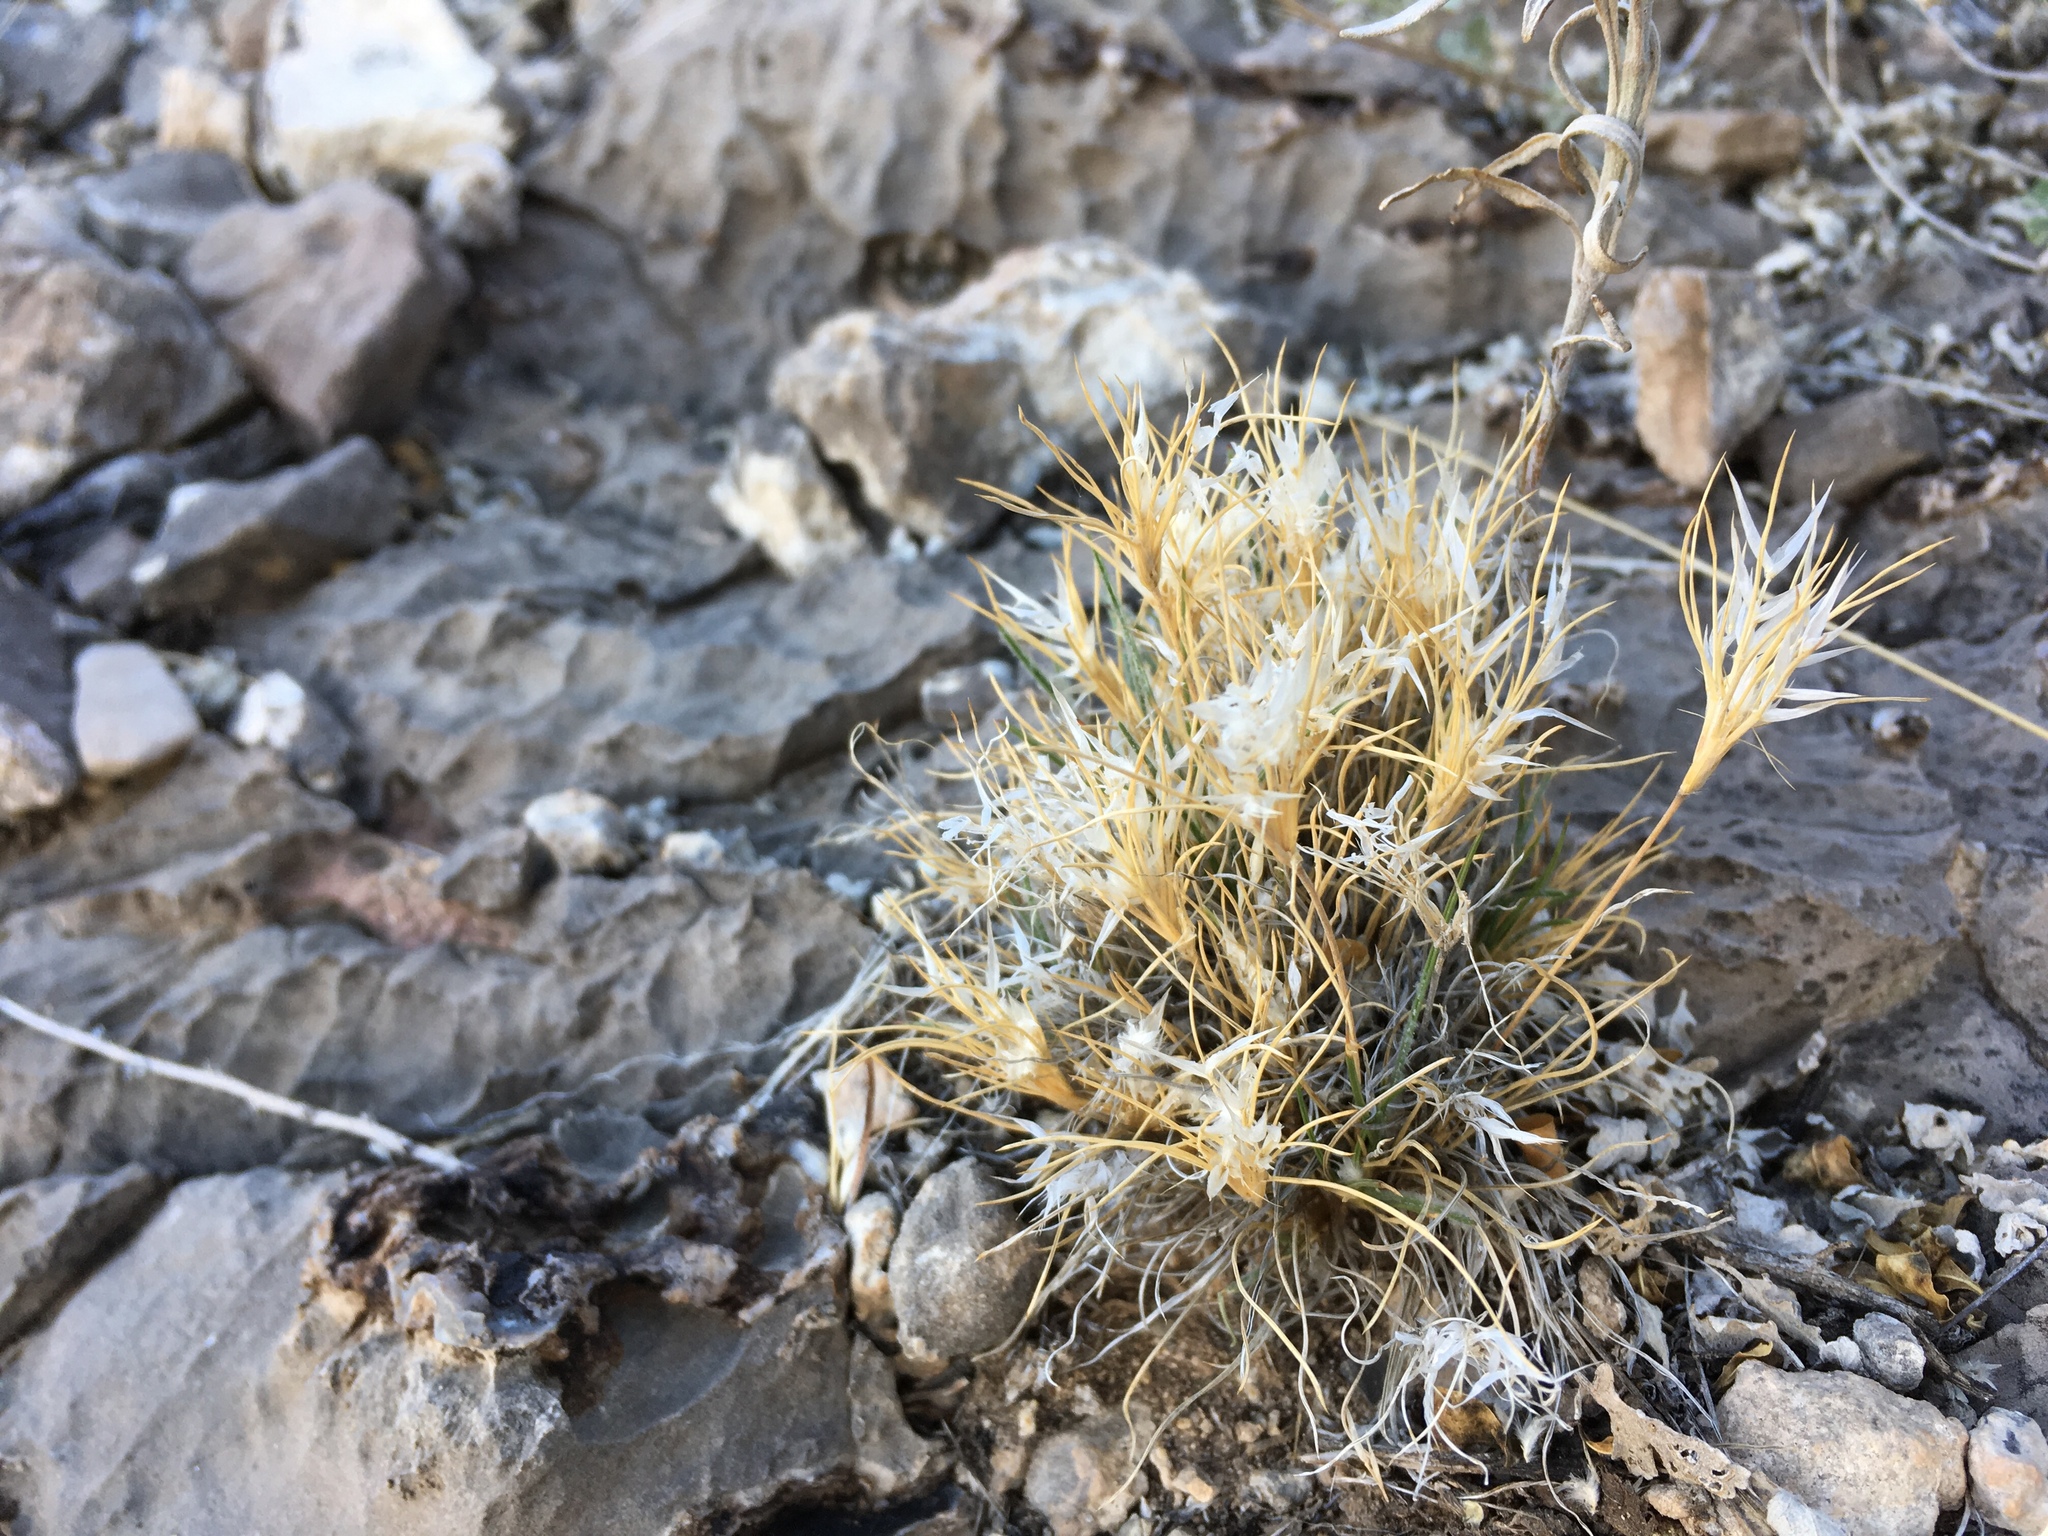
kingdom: Plantae
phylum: Tracheophyta
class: Liliopsida
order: Poales
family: Poaceae
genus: Dasyochloa
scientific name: Dasyochloa pulchella
